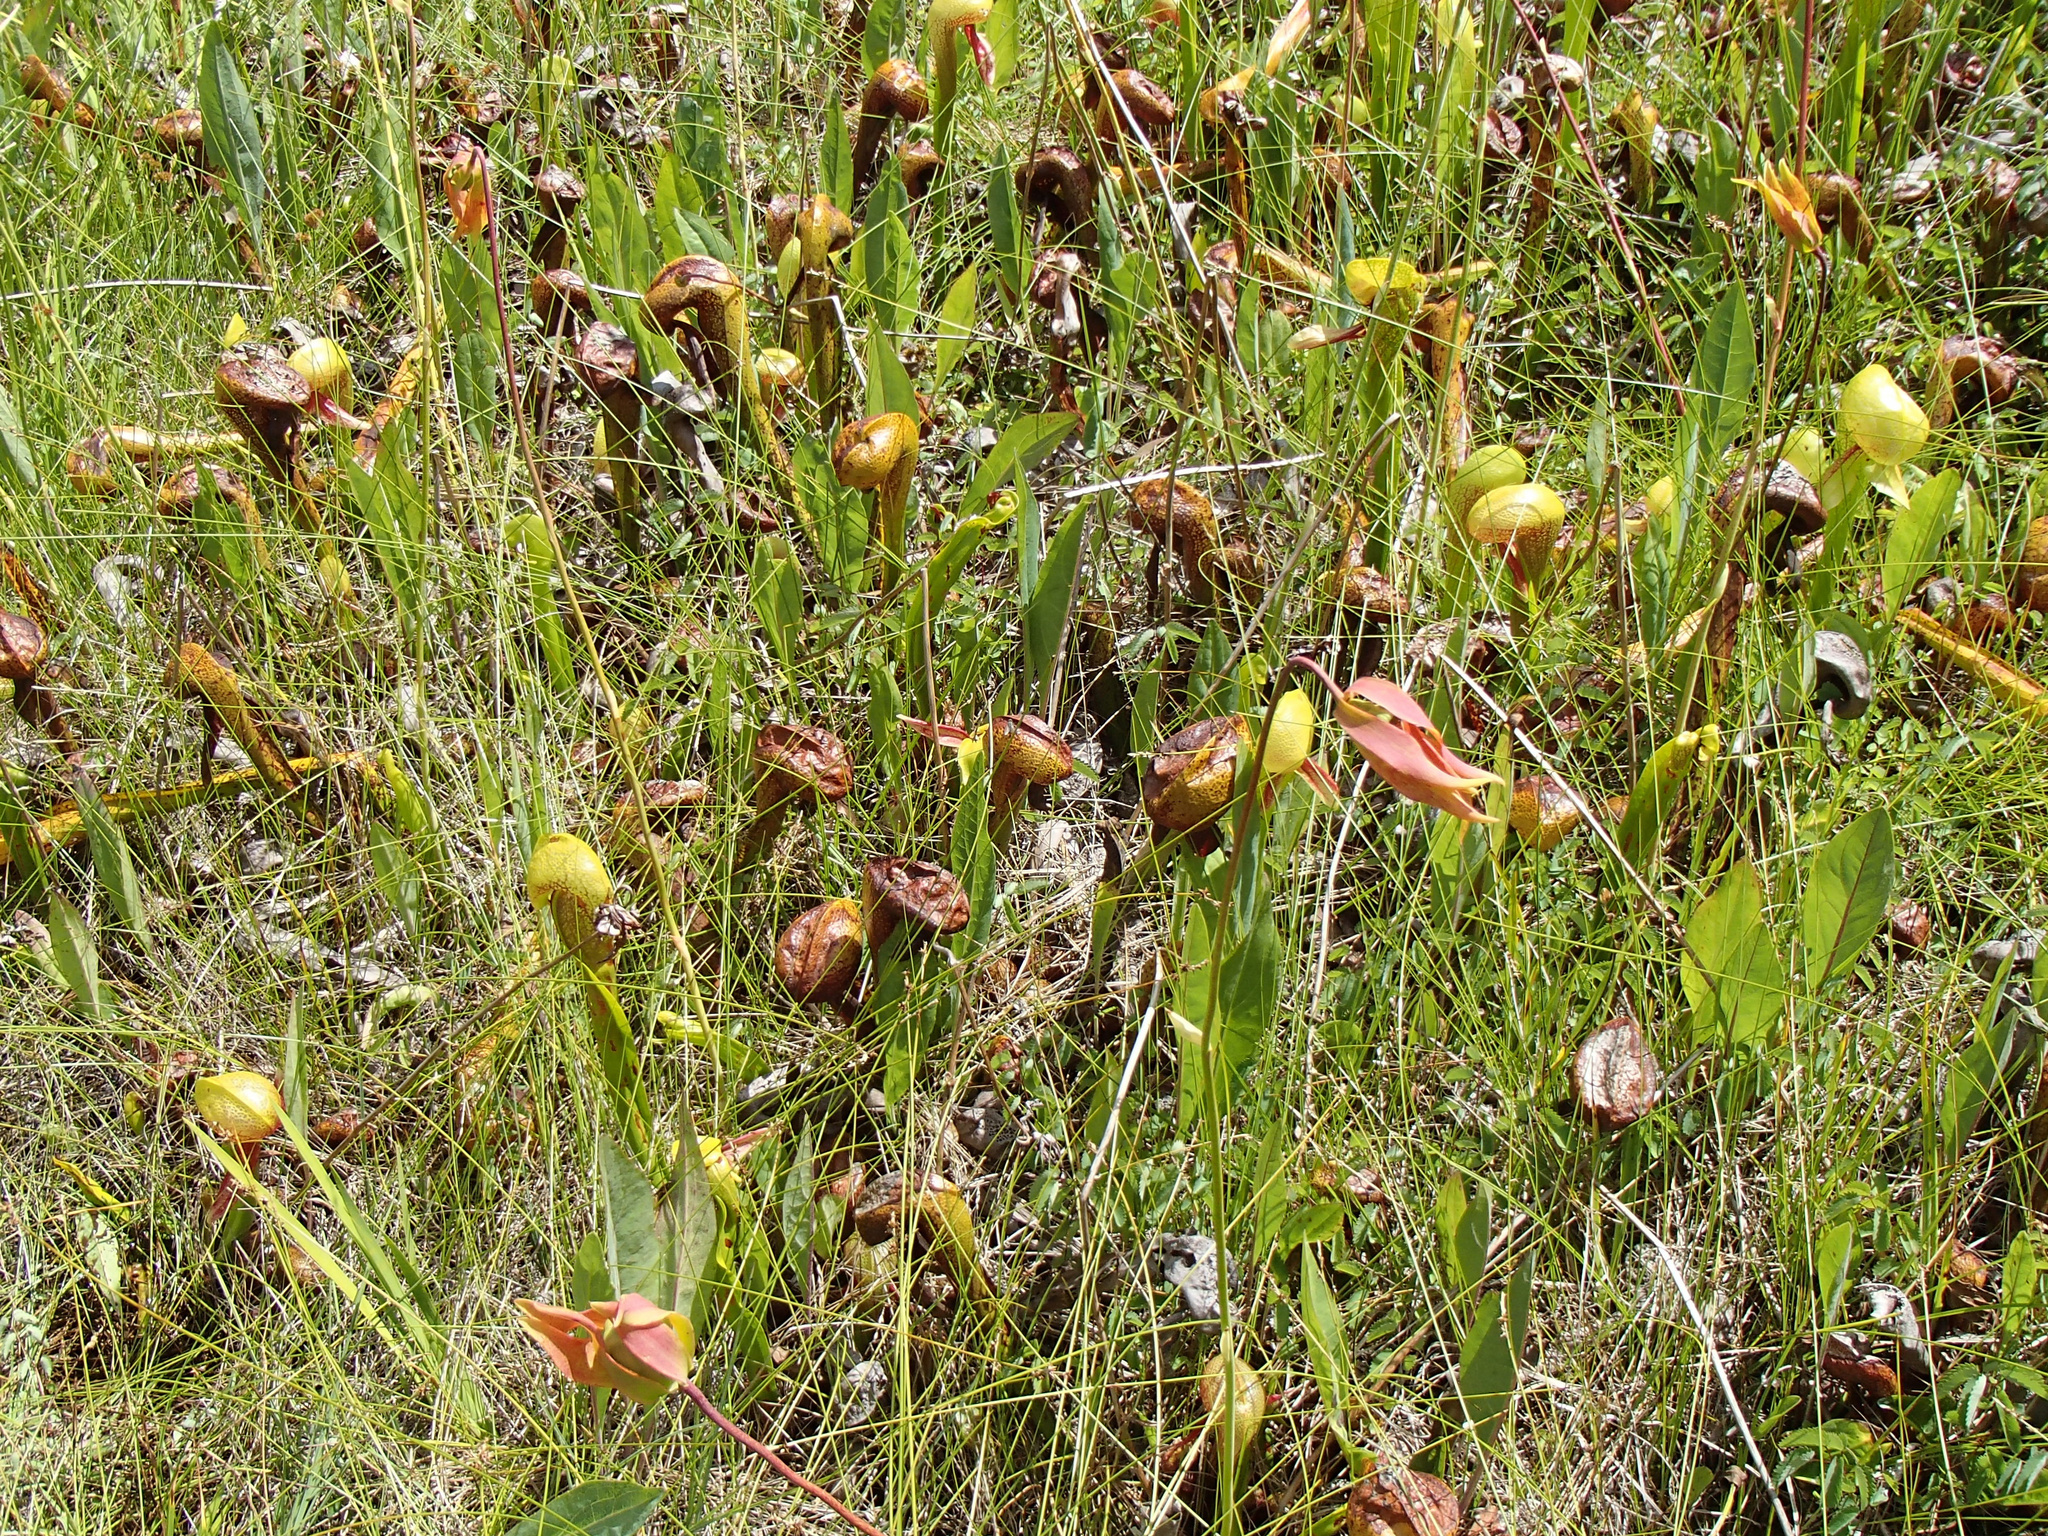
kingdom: Plantae
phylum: Tracheophyta
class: Magnoliopsida
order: Ericales
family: Sarraceniaceae
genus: Darlingtonia
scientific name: Darlingtonia californica
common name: California pitcher plant
